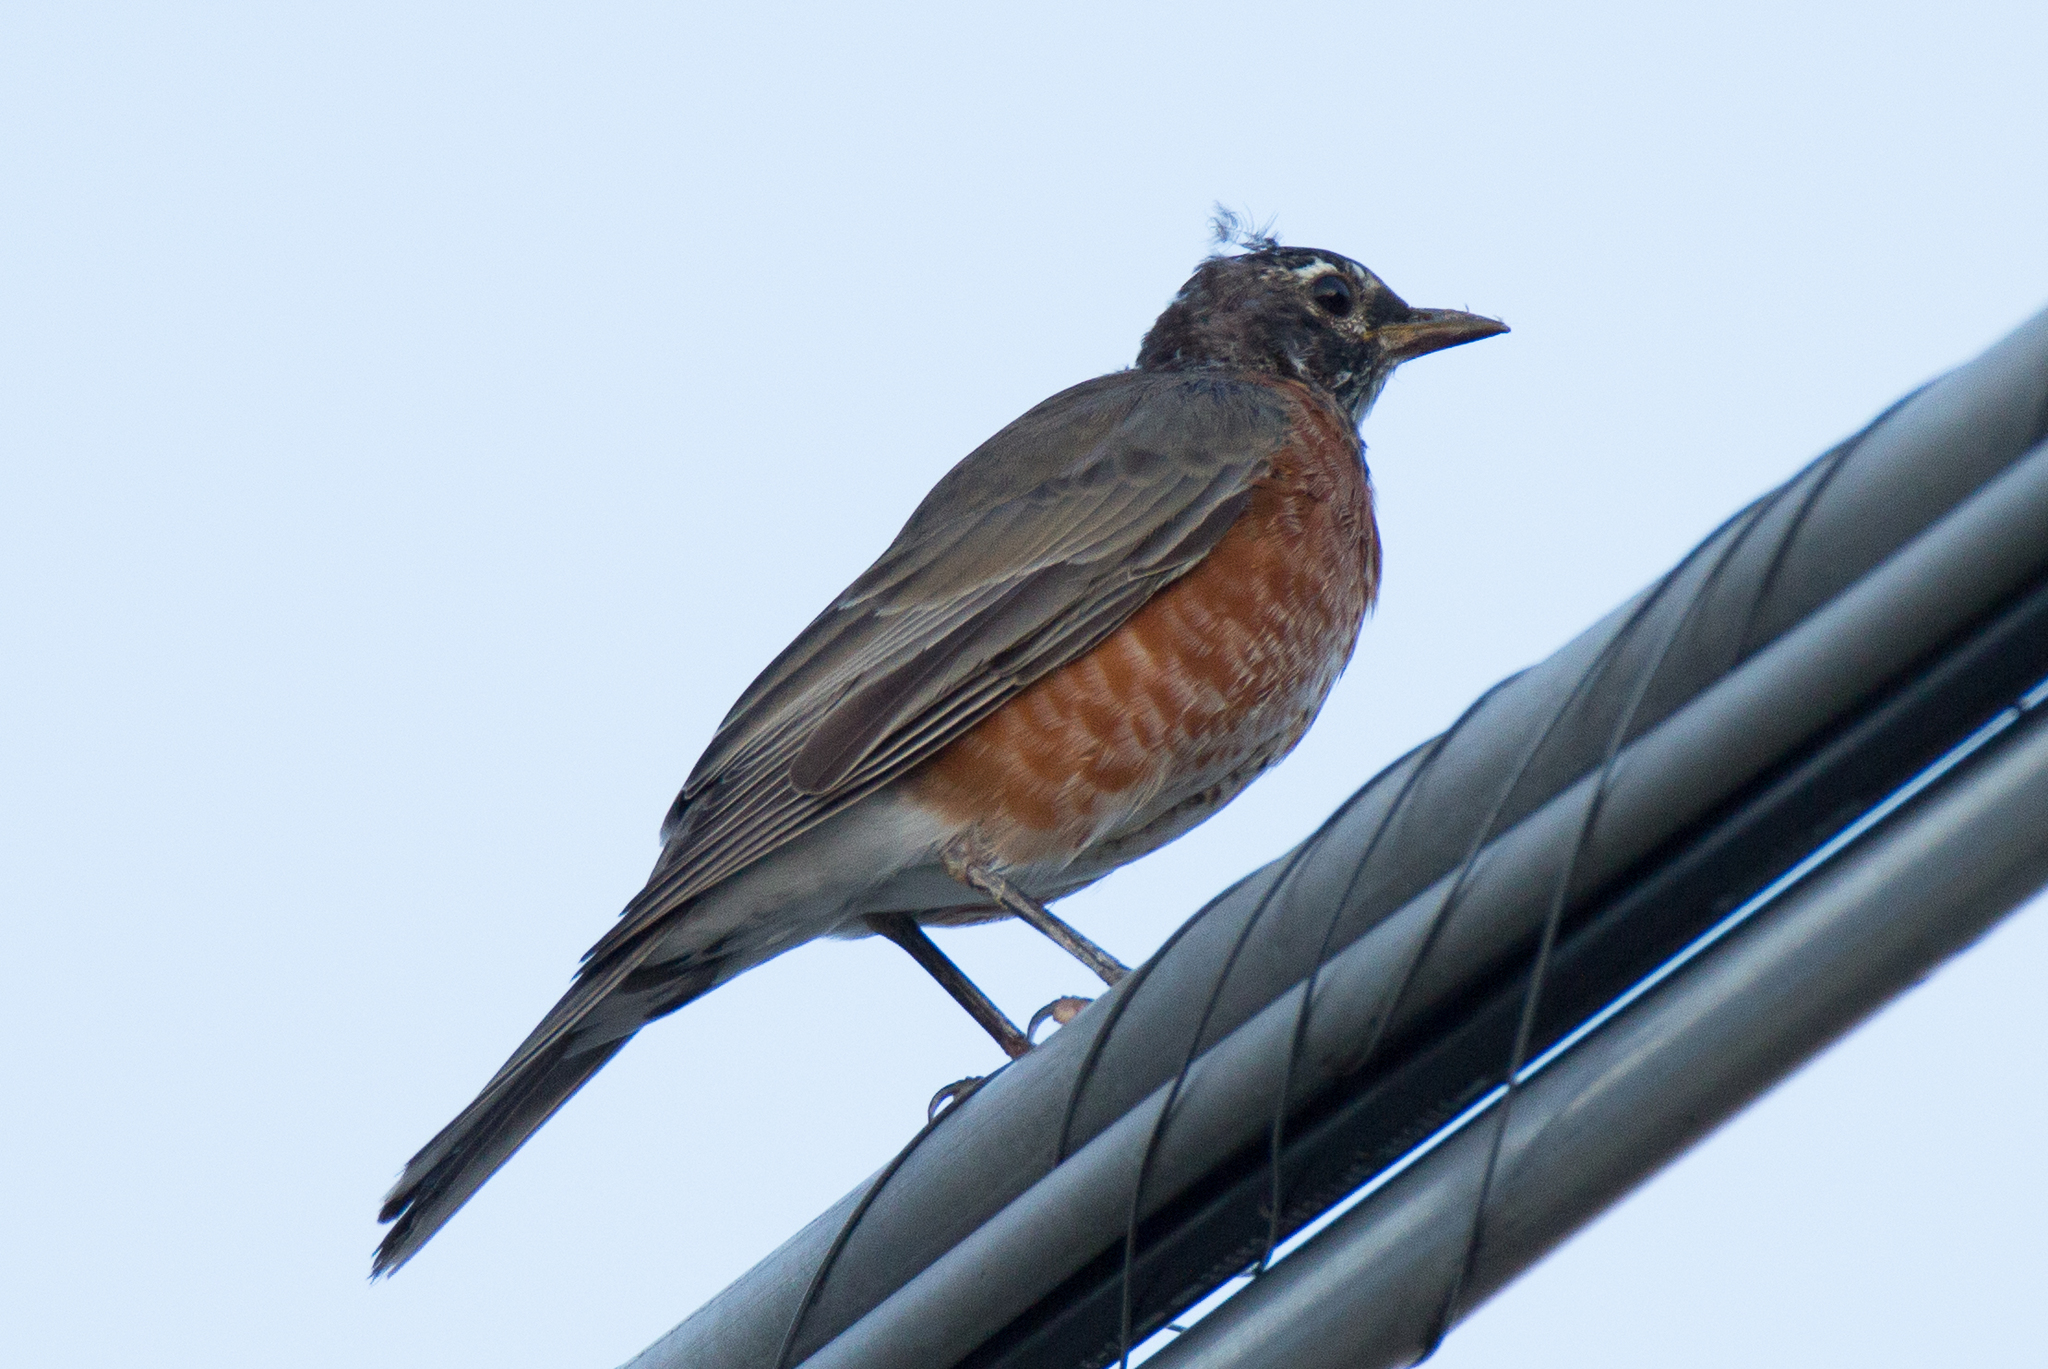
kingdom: Animalia
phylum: Chordata
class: Aves
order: Passeriformes
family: Turdidae
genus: Turdus
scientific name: Turdus migratorius
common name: American robin
